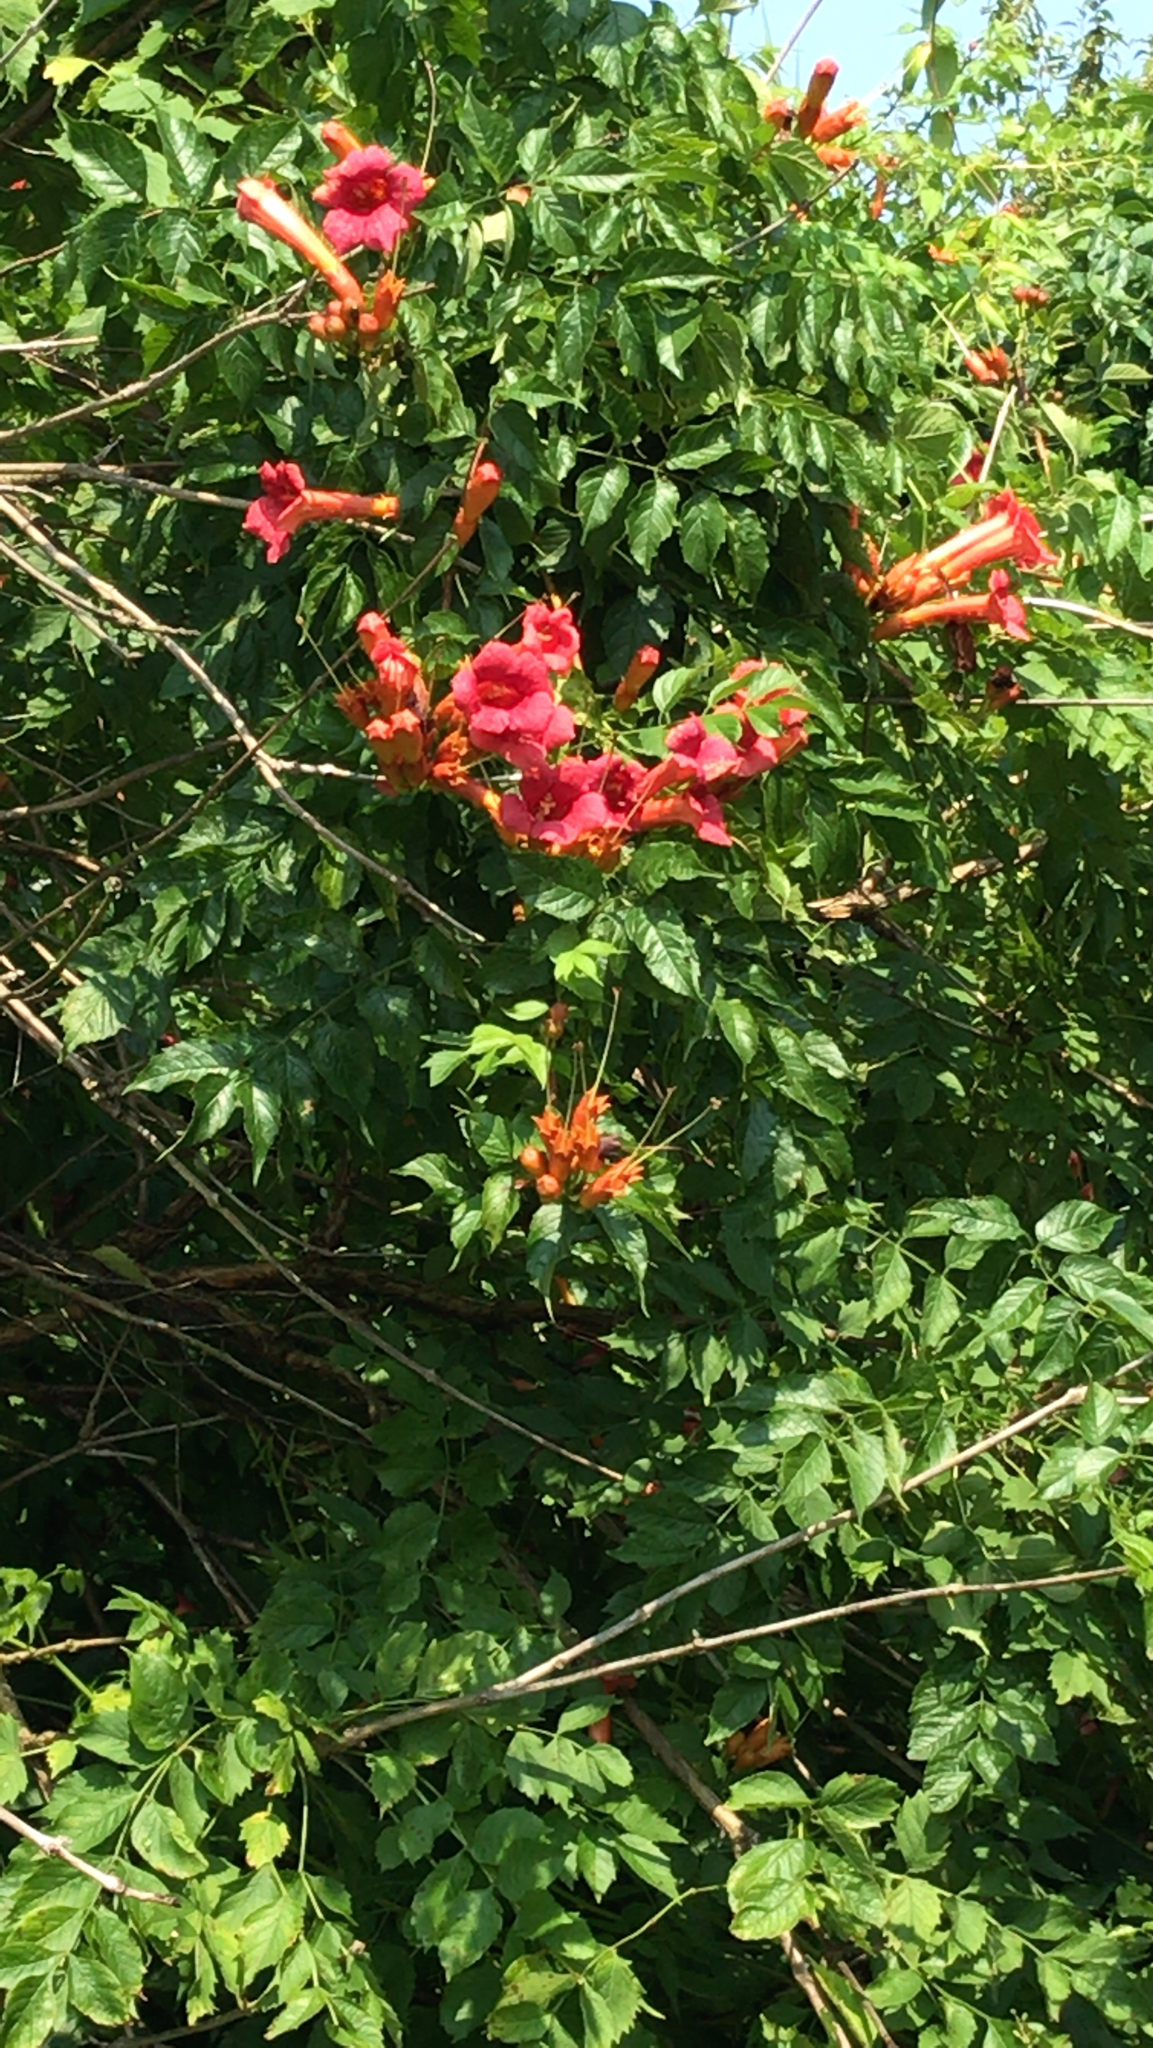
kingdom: Plantae
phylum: Tracheophyta
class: Magnoliopsida
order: Lamiales
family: Bignoniaceae
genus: Campsis
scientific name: Campsis radicans
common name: Trumpet-creeper
